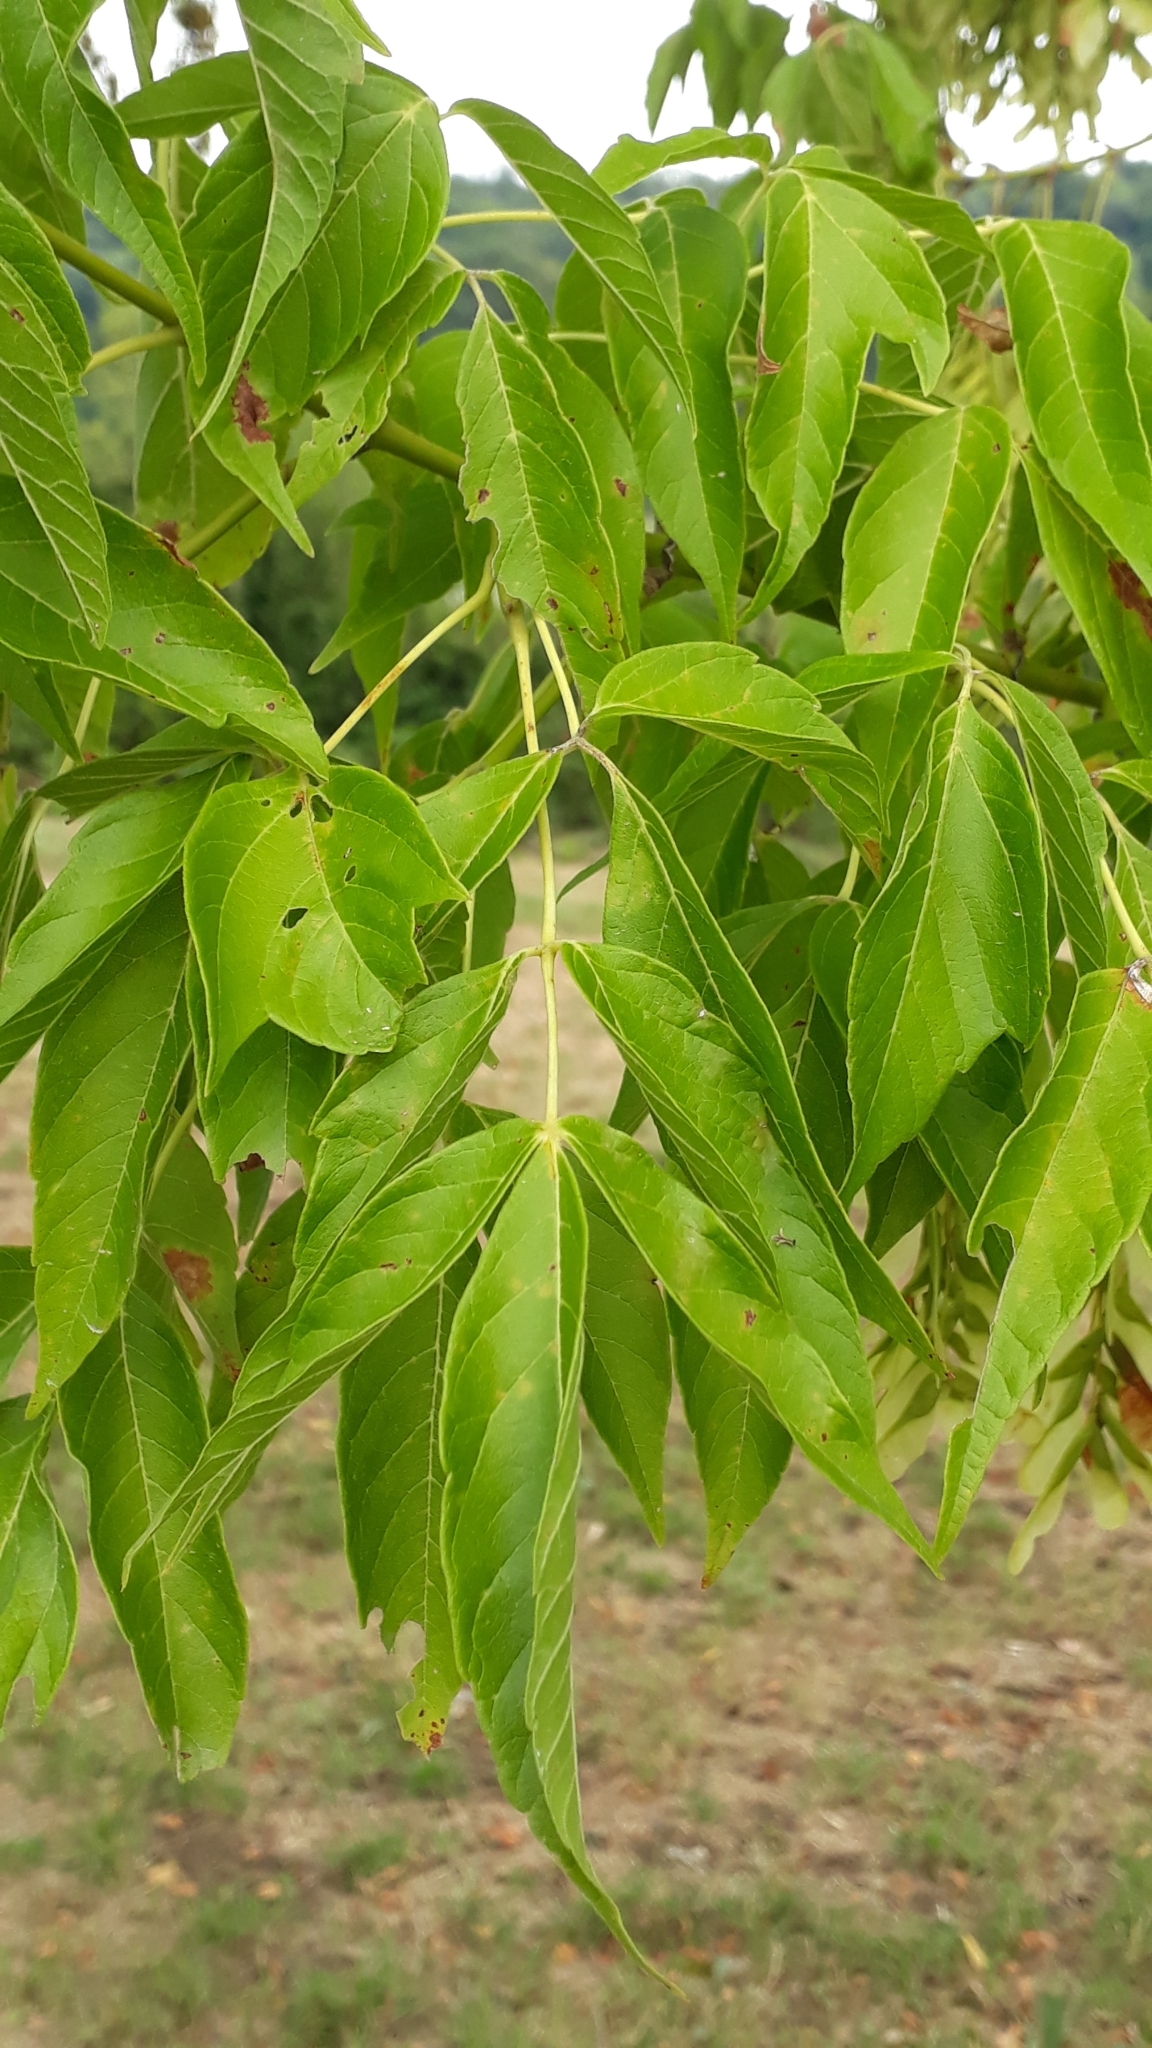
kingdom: Plantae
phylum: Tracheophyta
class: Magnoliopsida
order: Sapindales
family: Sapindaceae
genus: Acer
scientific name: Acer negundo
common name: Ashleaf maple
